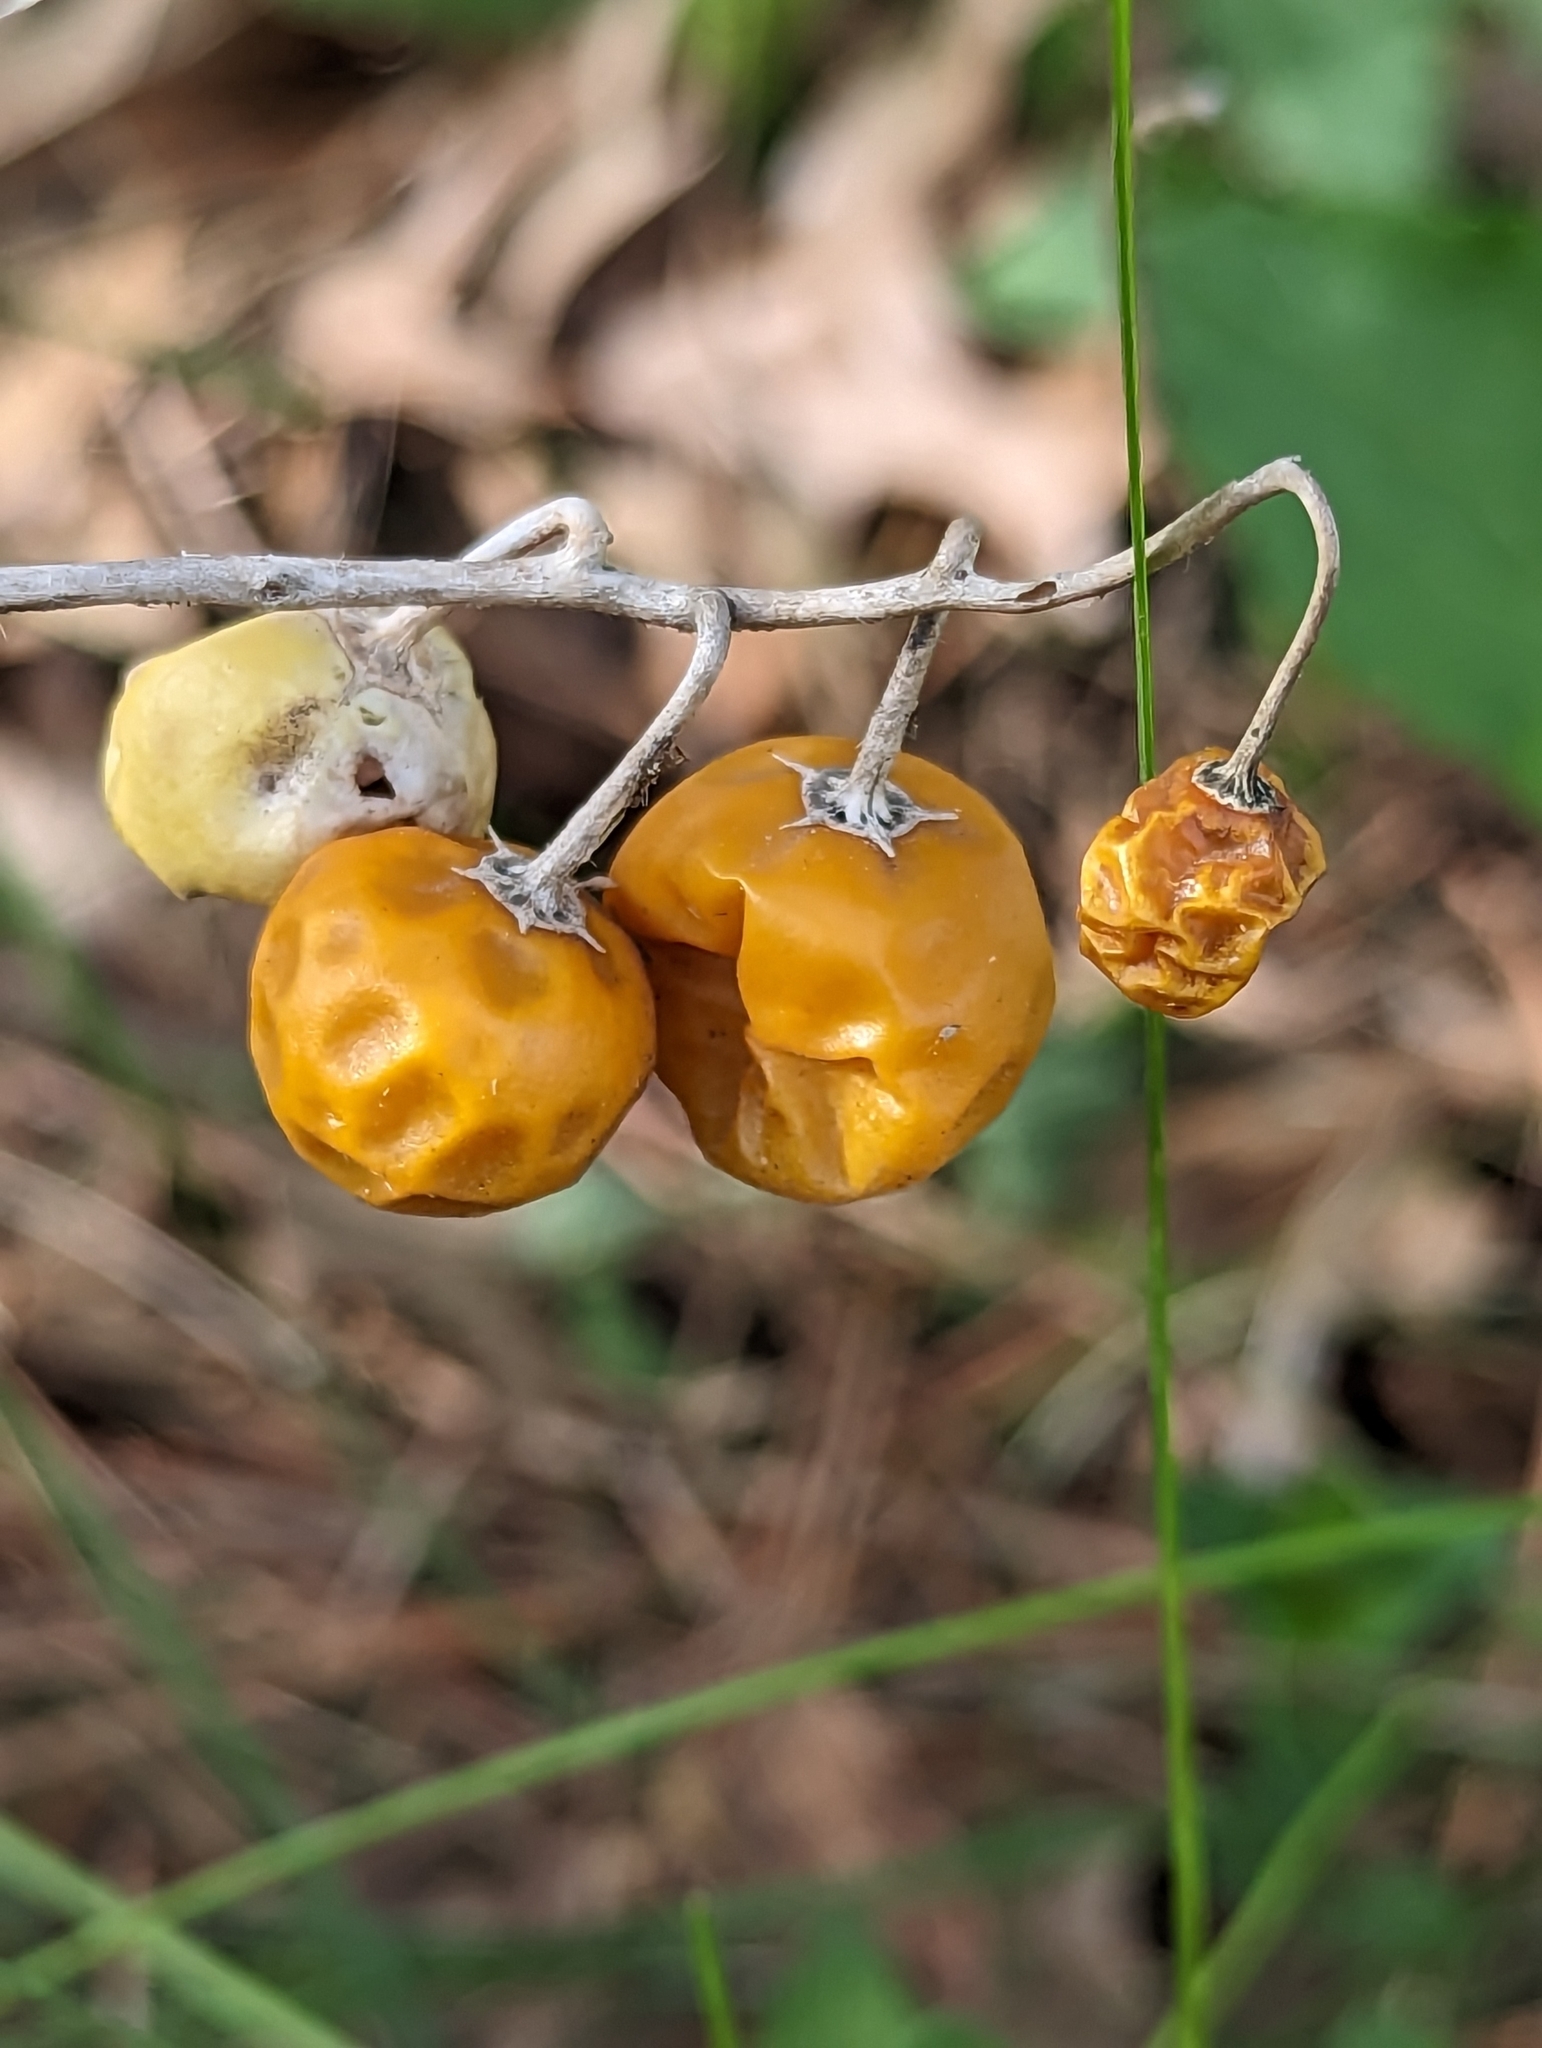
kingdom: Plantae
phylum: Tracheophyta
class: Magnoliopsida
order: Solanales
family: Solanaceae
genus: Solanum
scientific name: Solanum carolinense
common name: Horse-nettle
